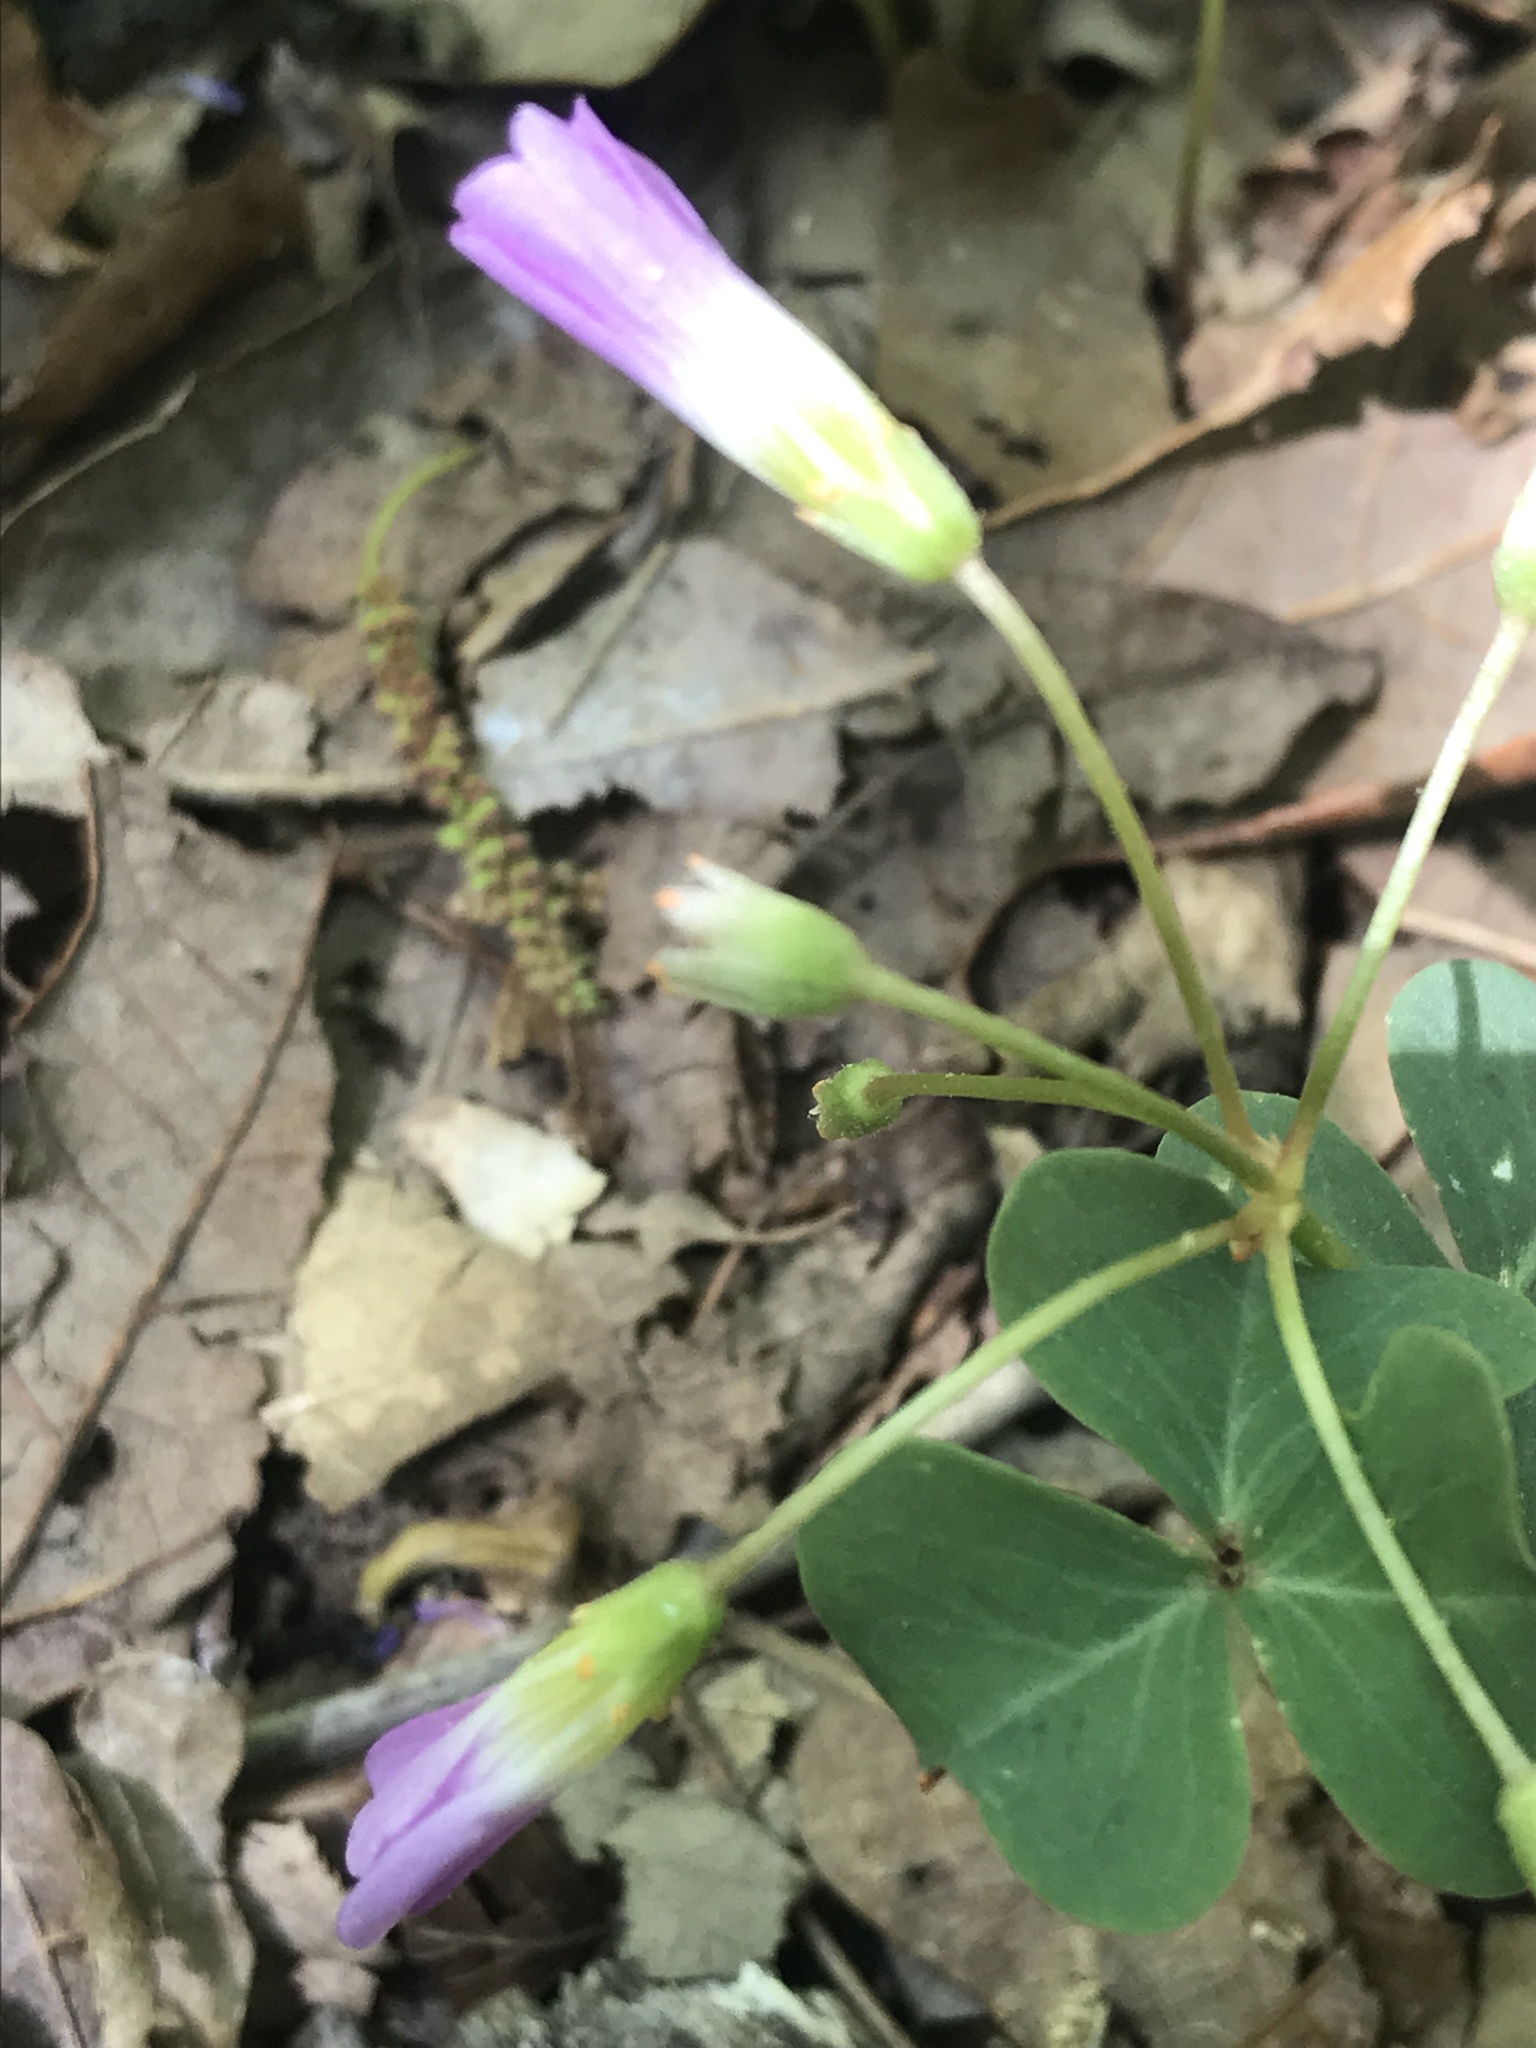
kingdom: Plantae
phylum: Tracheophyta
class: Magnoliopsida
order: Oxalidales
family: Oxalidaceae
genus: Oxalis
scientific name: Oxalis violacea
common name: Violet wood-sorrel
